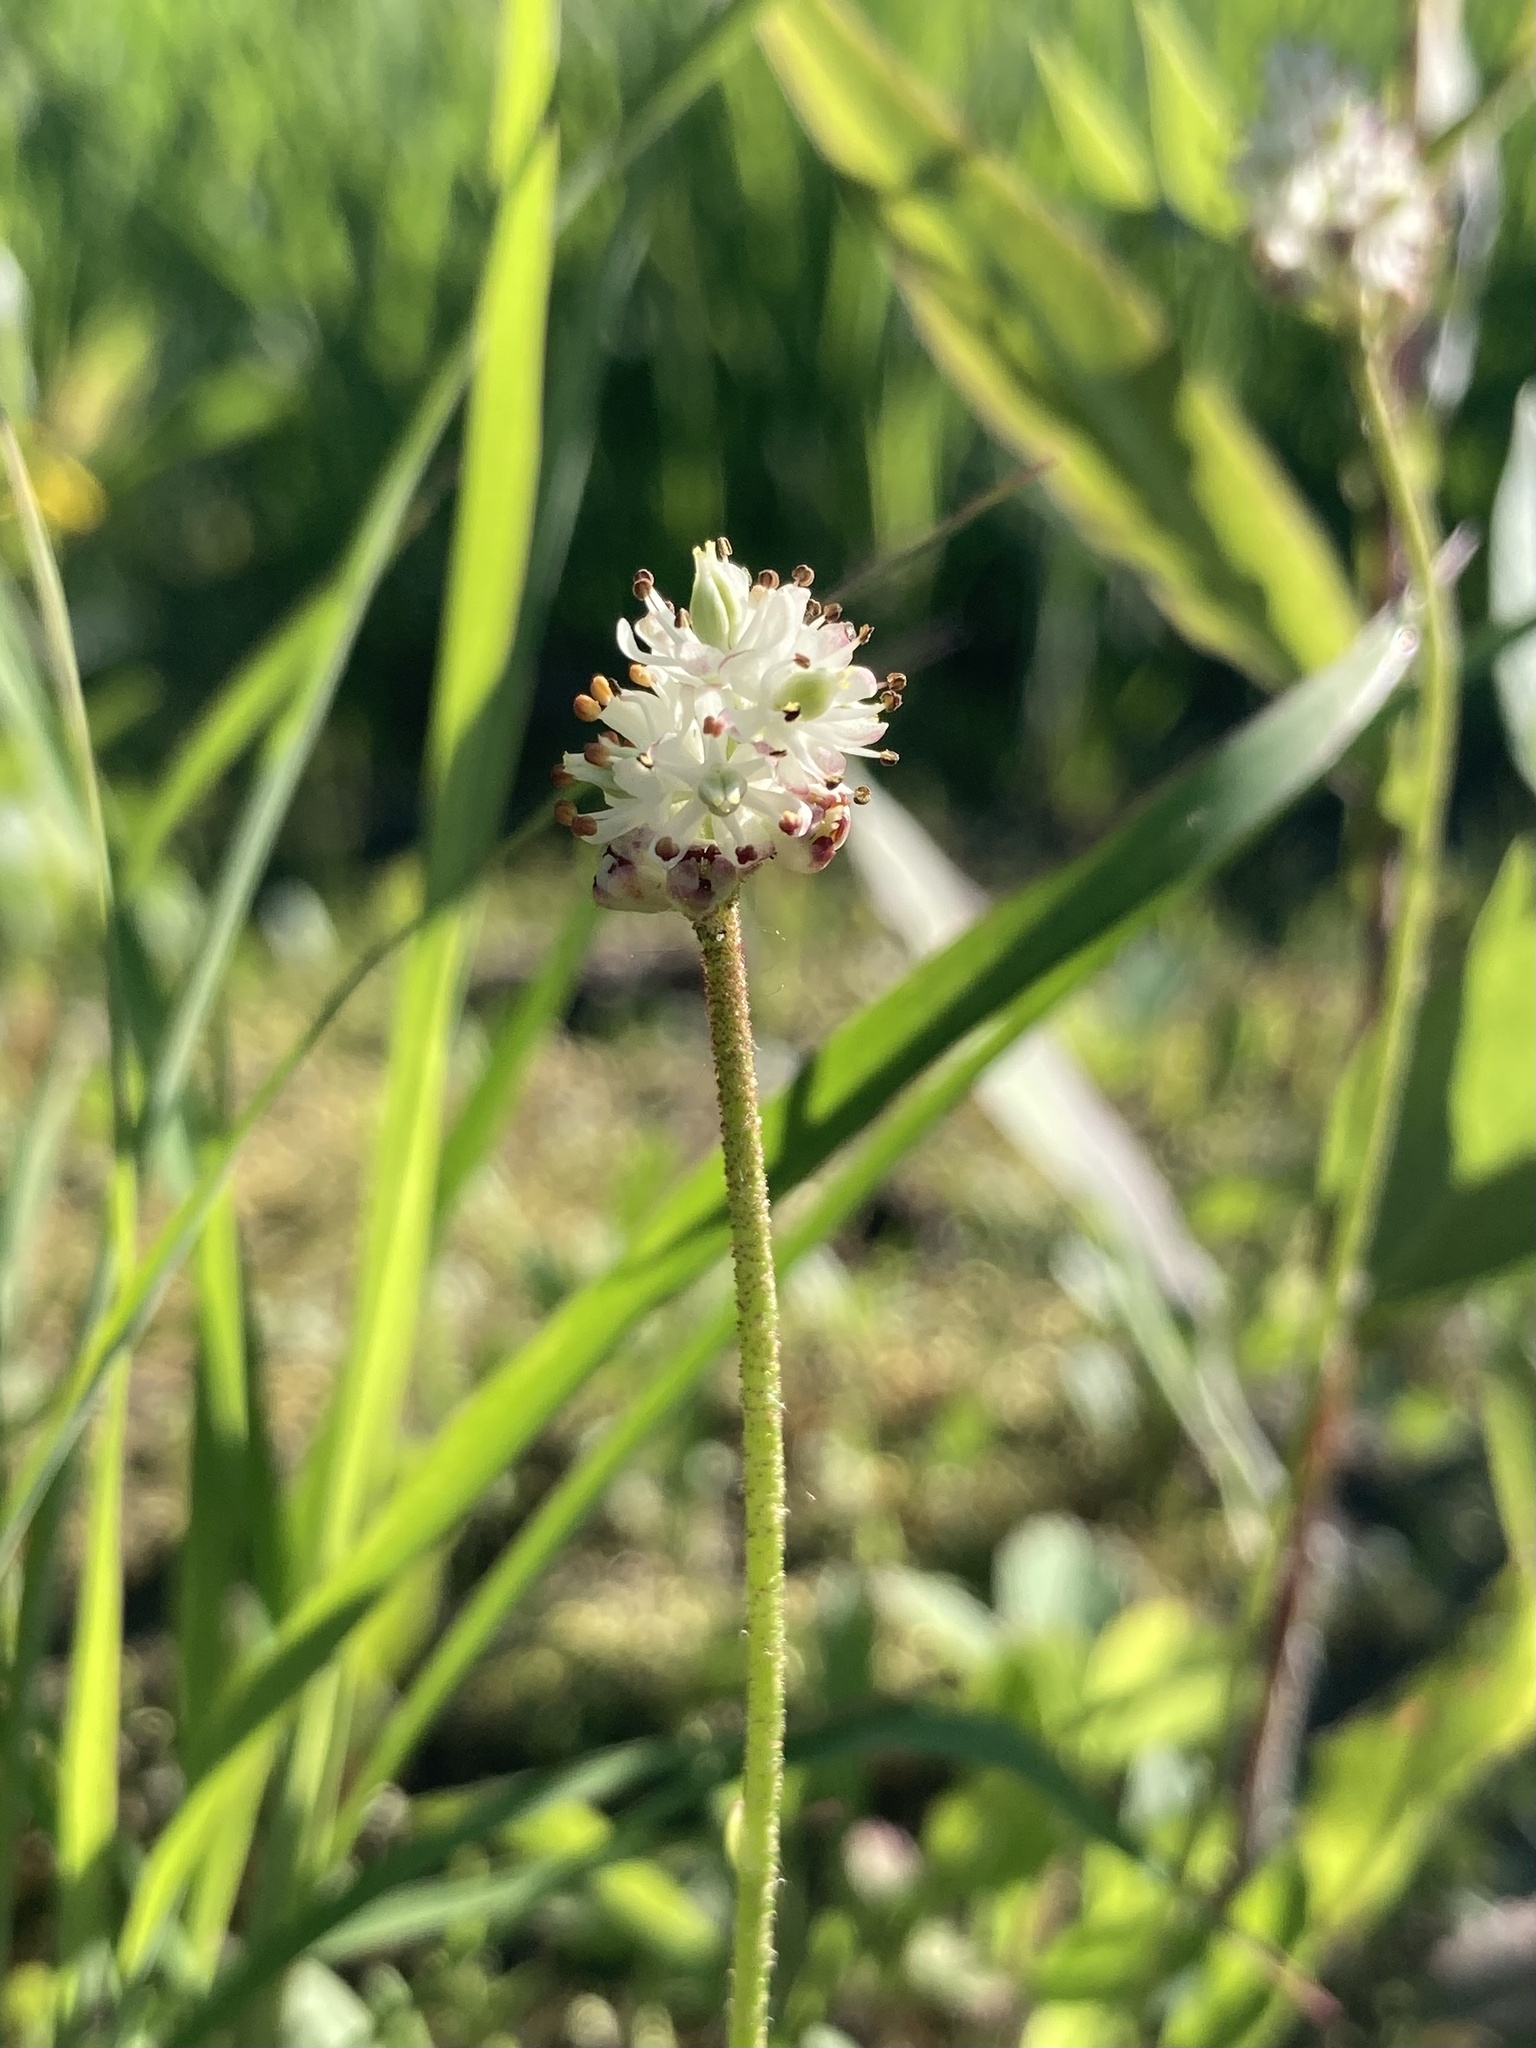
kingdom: Plantae
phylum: Tracheophyta
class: Liliopsida
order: Alismatales
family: Tofieldiaceae
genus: Triantha
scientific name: Triantha glutinosa
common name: Glutinous tofieldia
